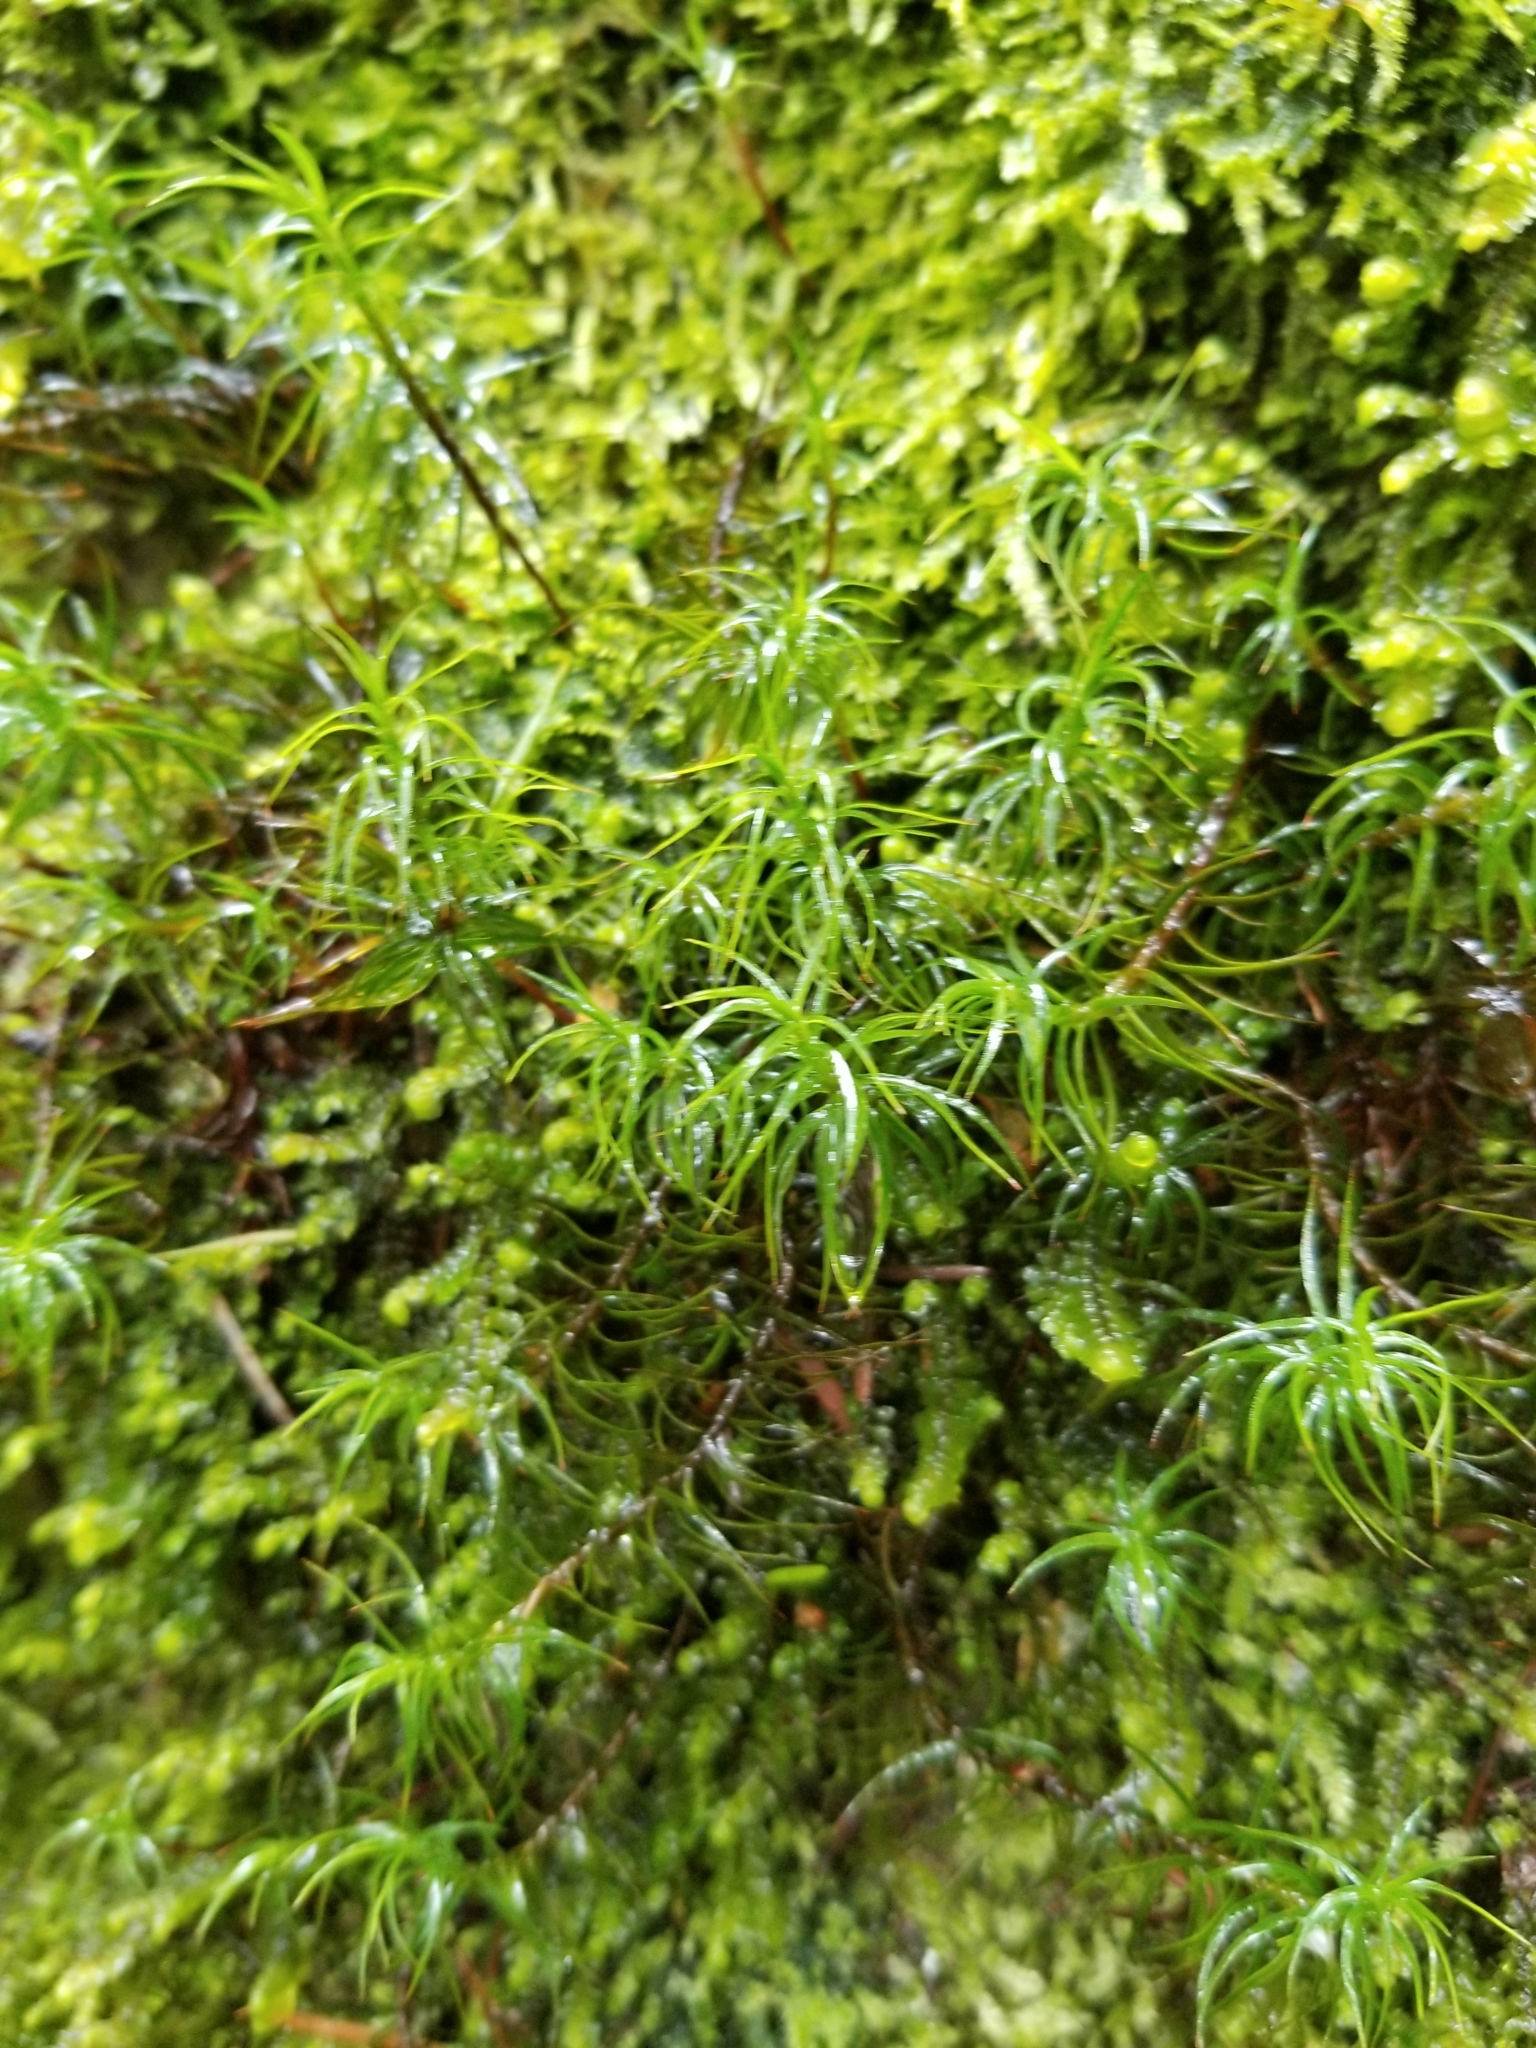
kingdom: Plantae
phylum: Bryophyta
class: Polytrichopsida
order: Polytrichales
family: Polytrichaceae
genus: Polytrichastrum
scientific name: Polytrichastrum alpinum
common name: Alpine haircap
